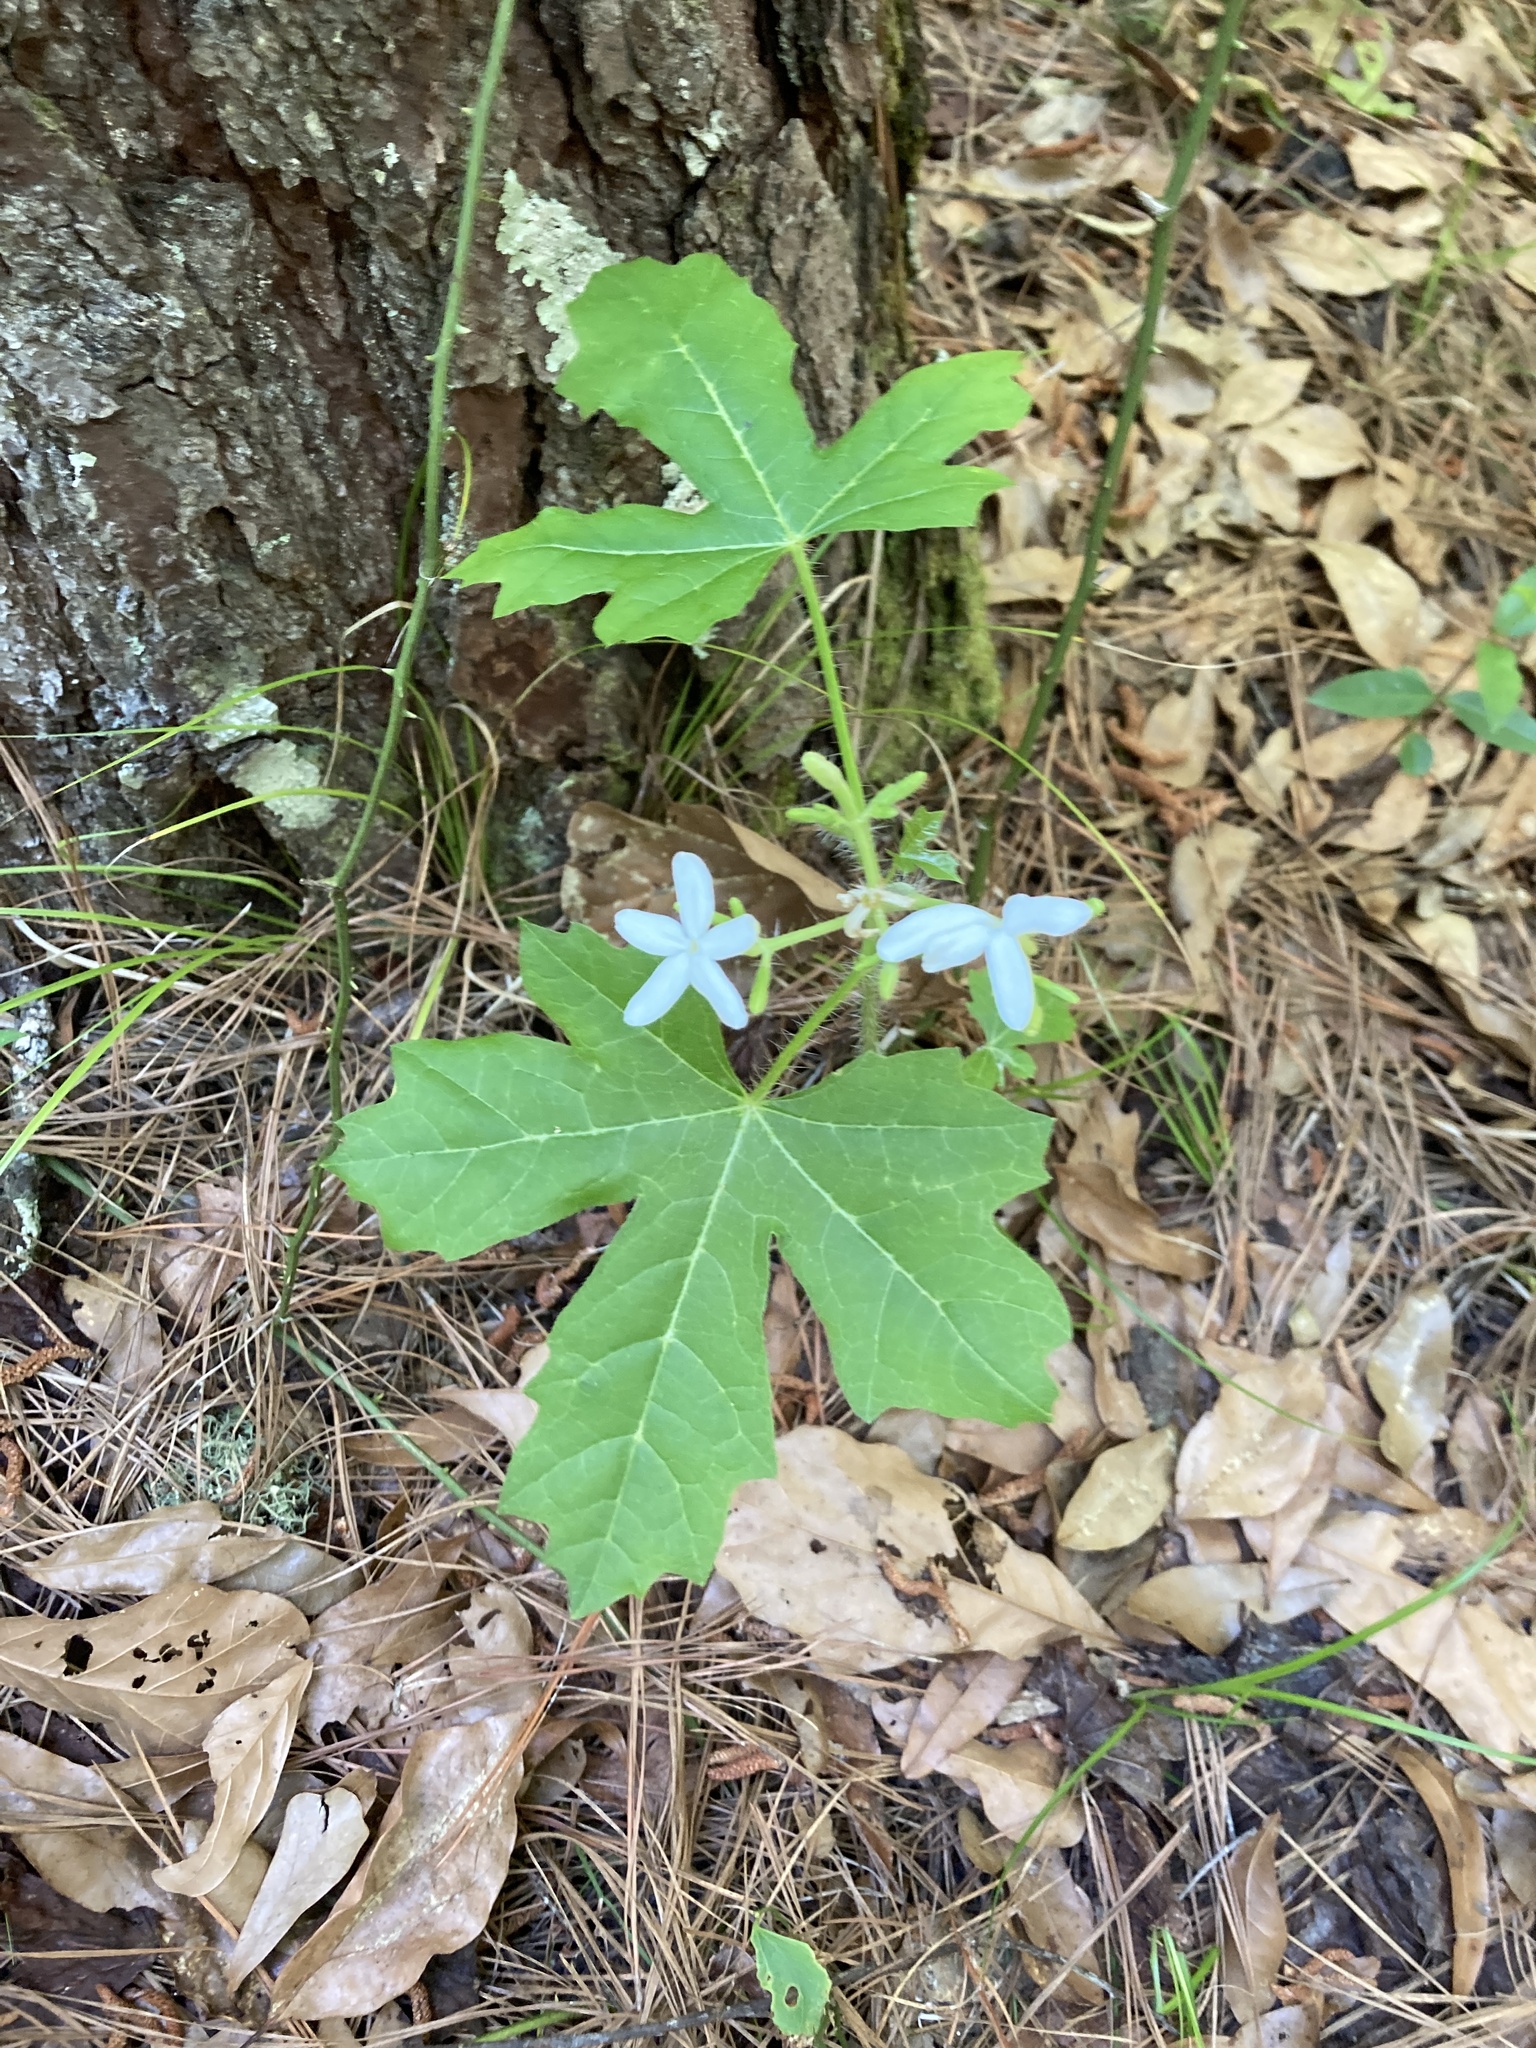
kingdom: Plantae
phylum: Tracheophyta
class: Magnoliopsida
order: Malpighiales
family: Euphorbiaceae
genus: Cnidoscolus
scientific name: Cnidoscolus stimulosus
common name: Bull-nettle
